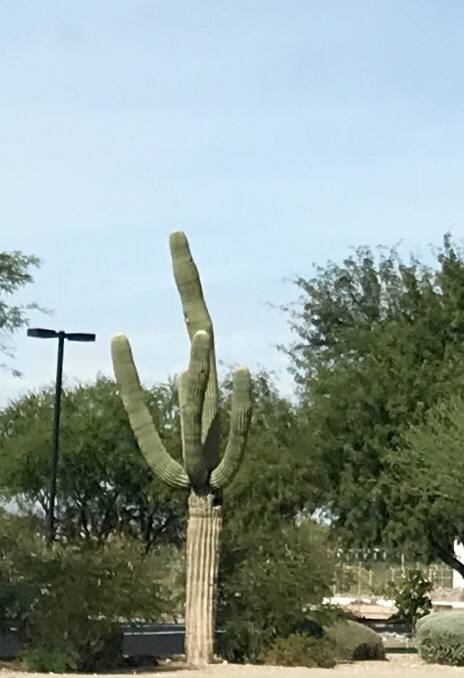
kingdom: Plantae
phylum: Tracheophyta
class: Magnoliopsida
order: Caryophyllales
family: Cactaceae
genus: Carnegiea
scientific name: Carnegiea gigantea
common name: Saguaro
